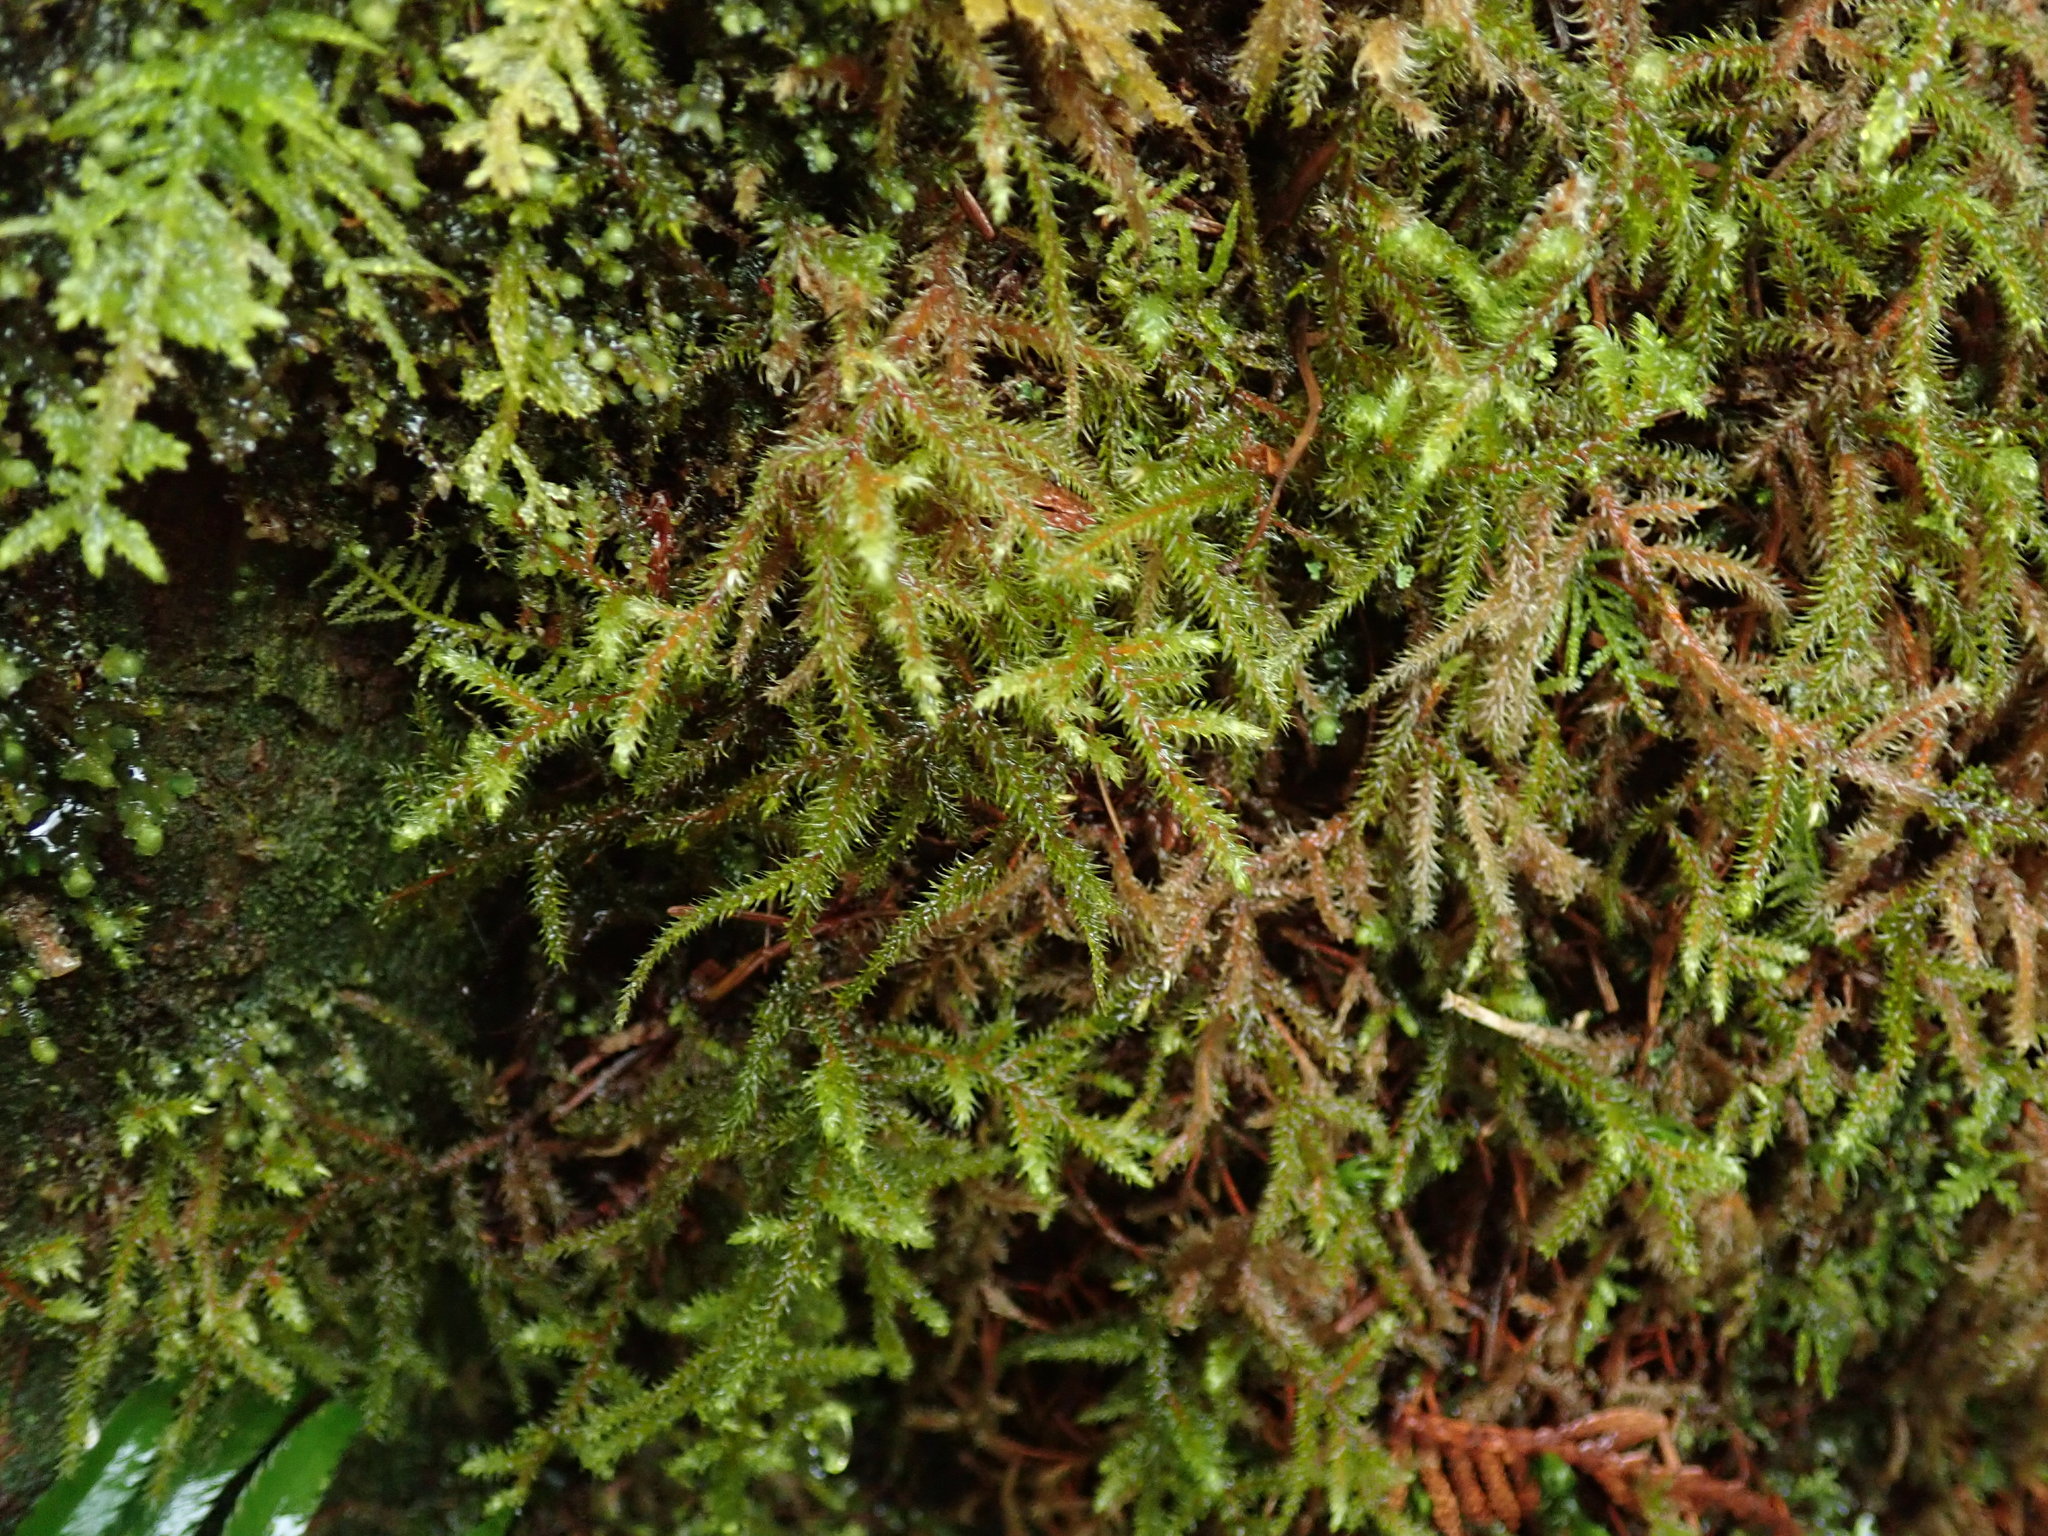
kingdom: Plantae
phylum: Bryophyta
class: Bryopsida
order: Hypnales
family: Hylocomiaceae
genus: Rhytidiadelphus
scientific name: Rhytidiadelphus loreus
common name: Lanky moss
